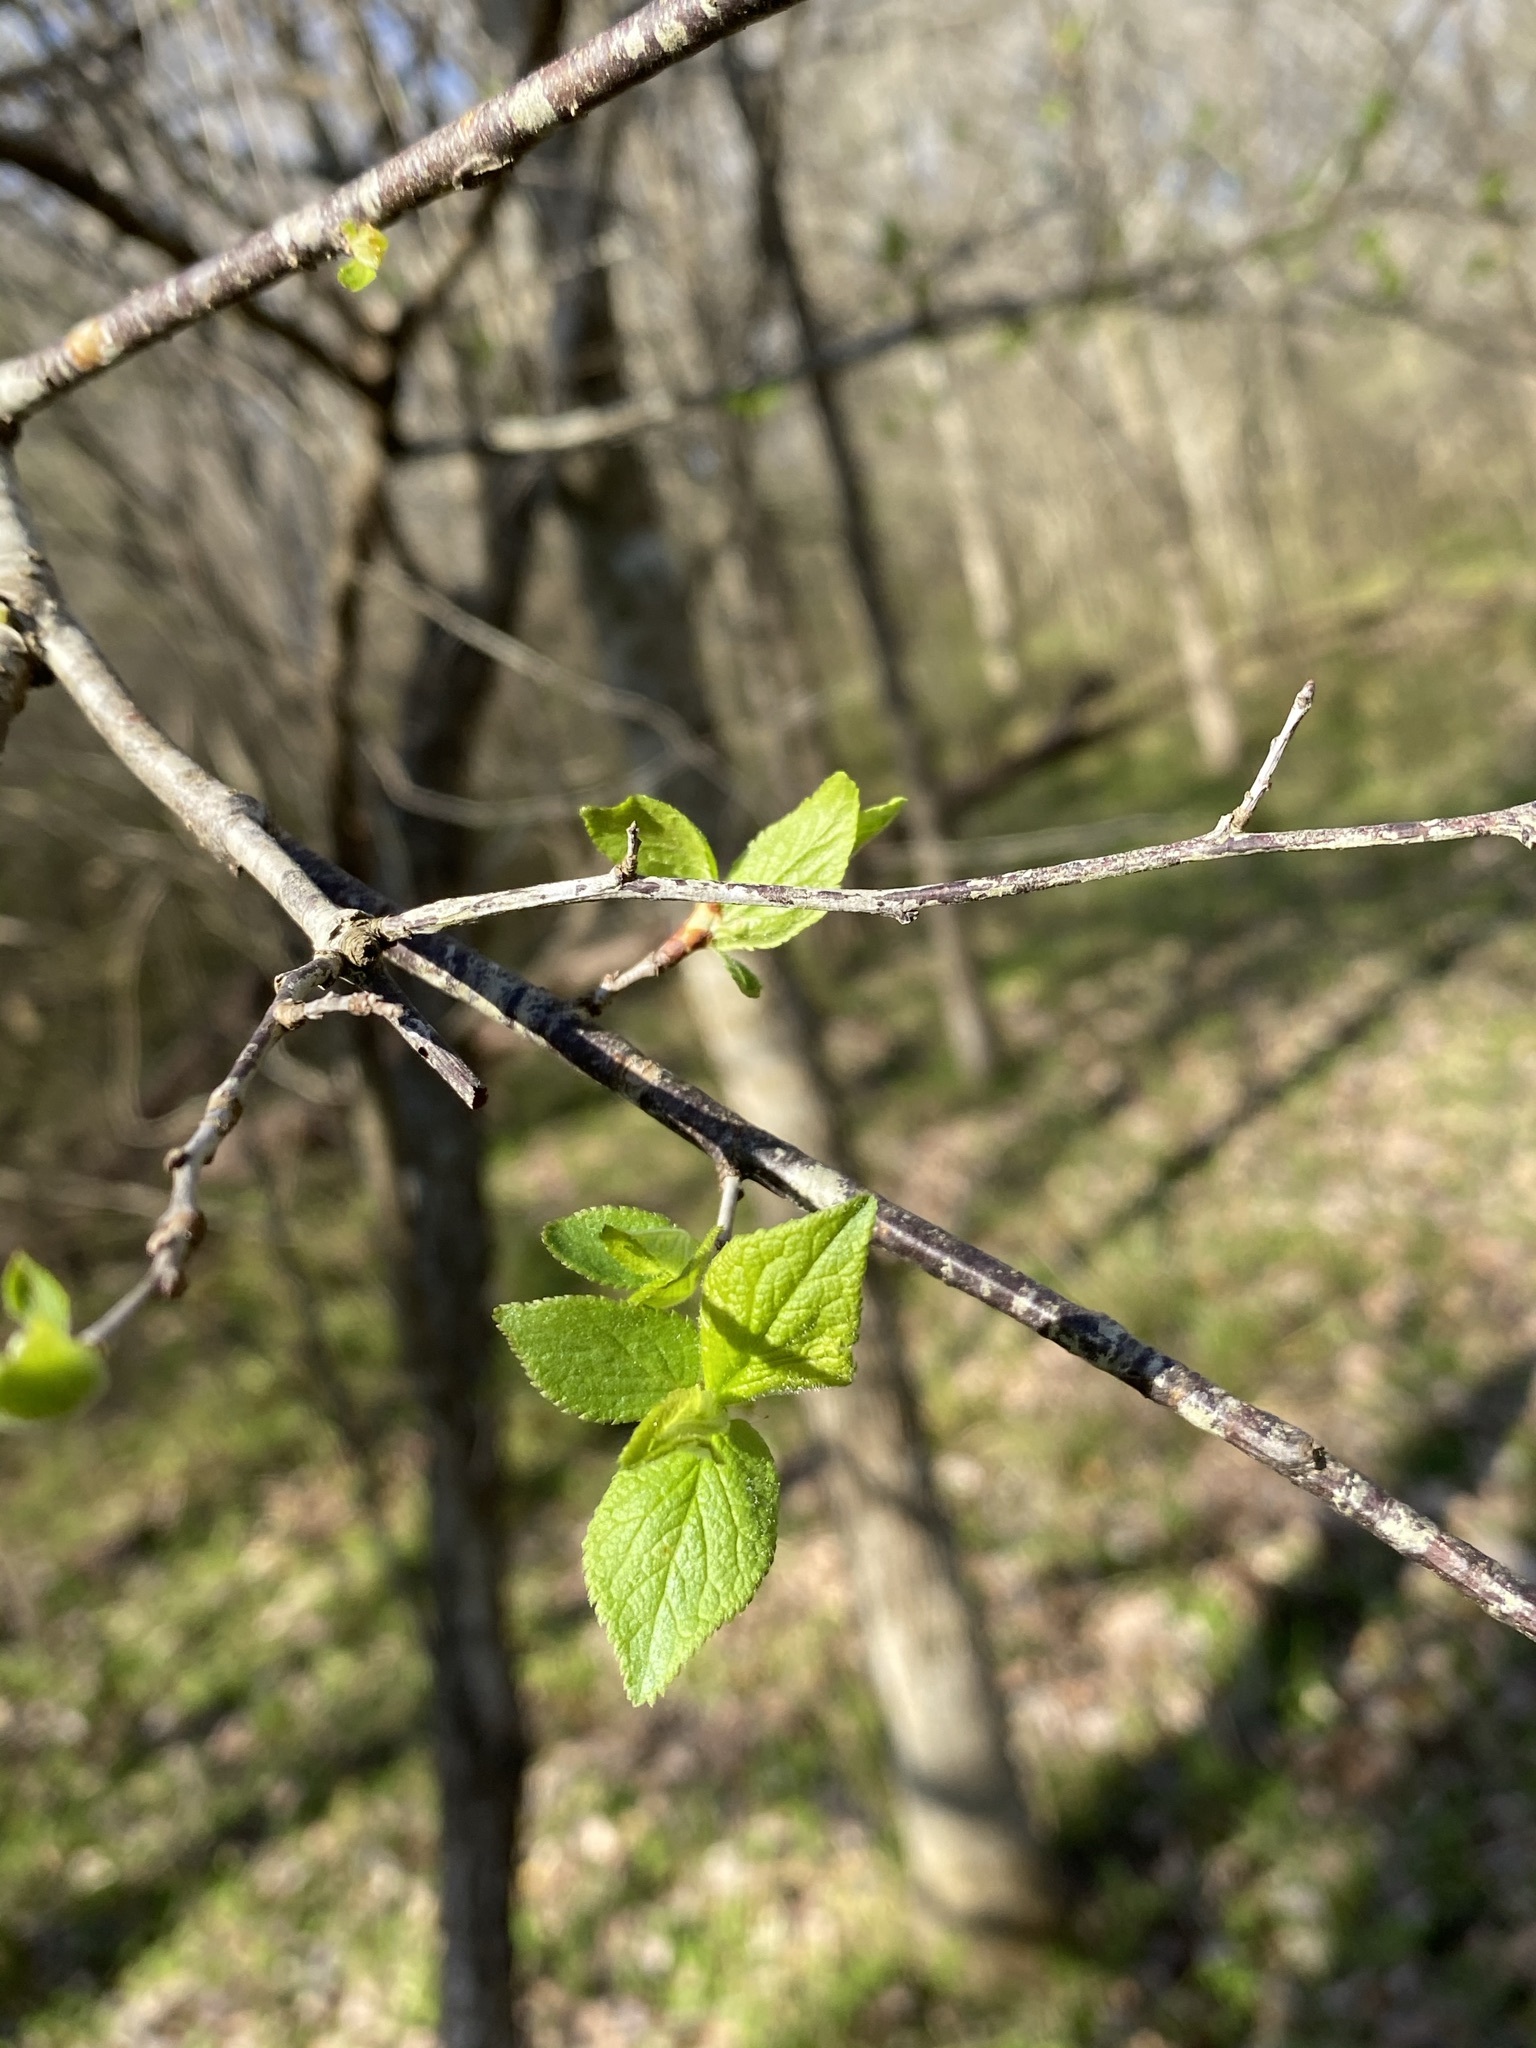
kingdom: Plantae
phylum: Tracheophyta
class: Magnoliopsida
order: Rosales
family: Rosaceae
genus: Prunus
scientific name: Prunus mexicana
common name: Mexican plum
